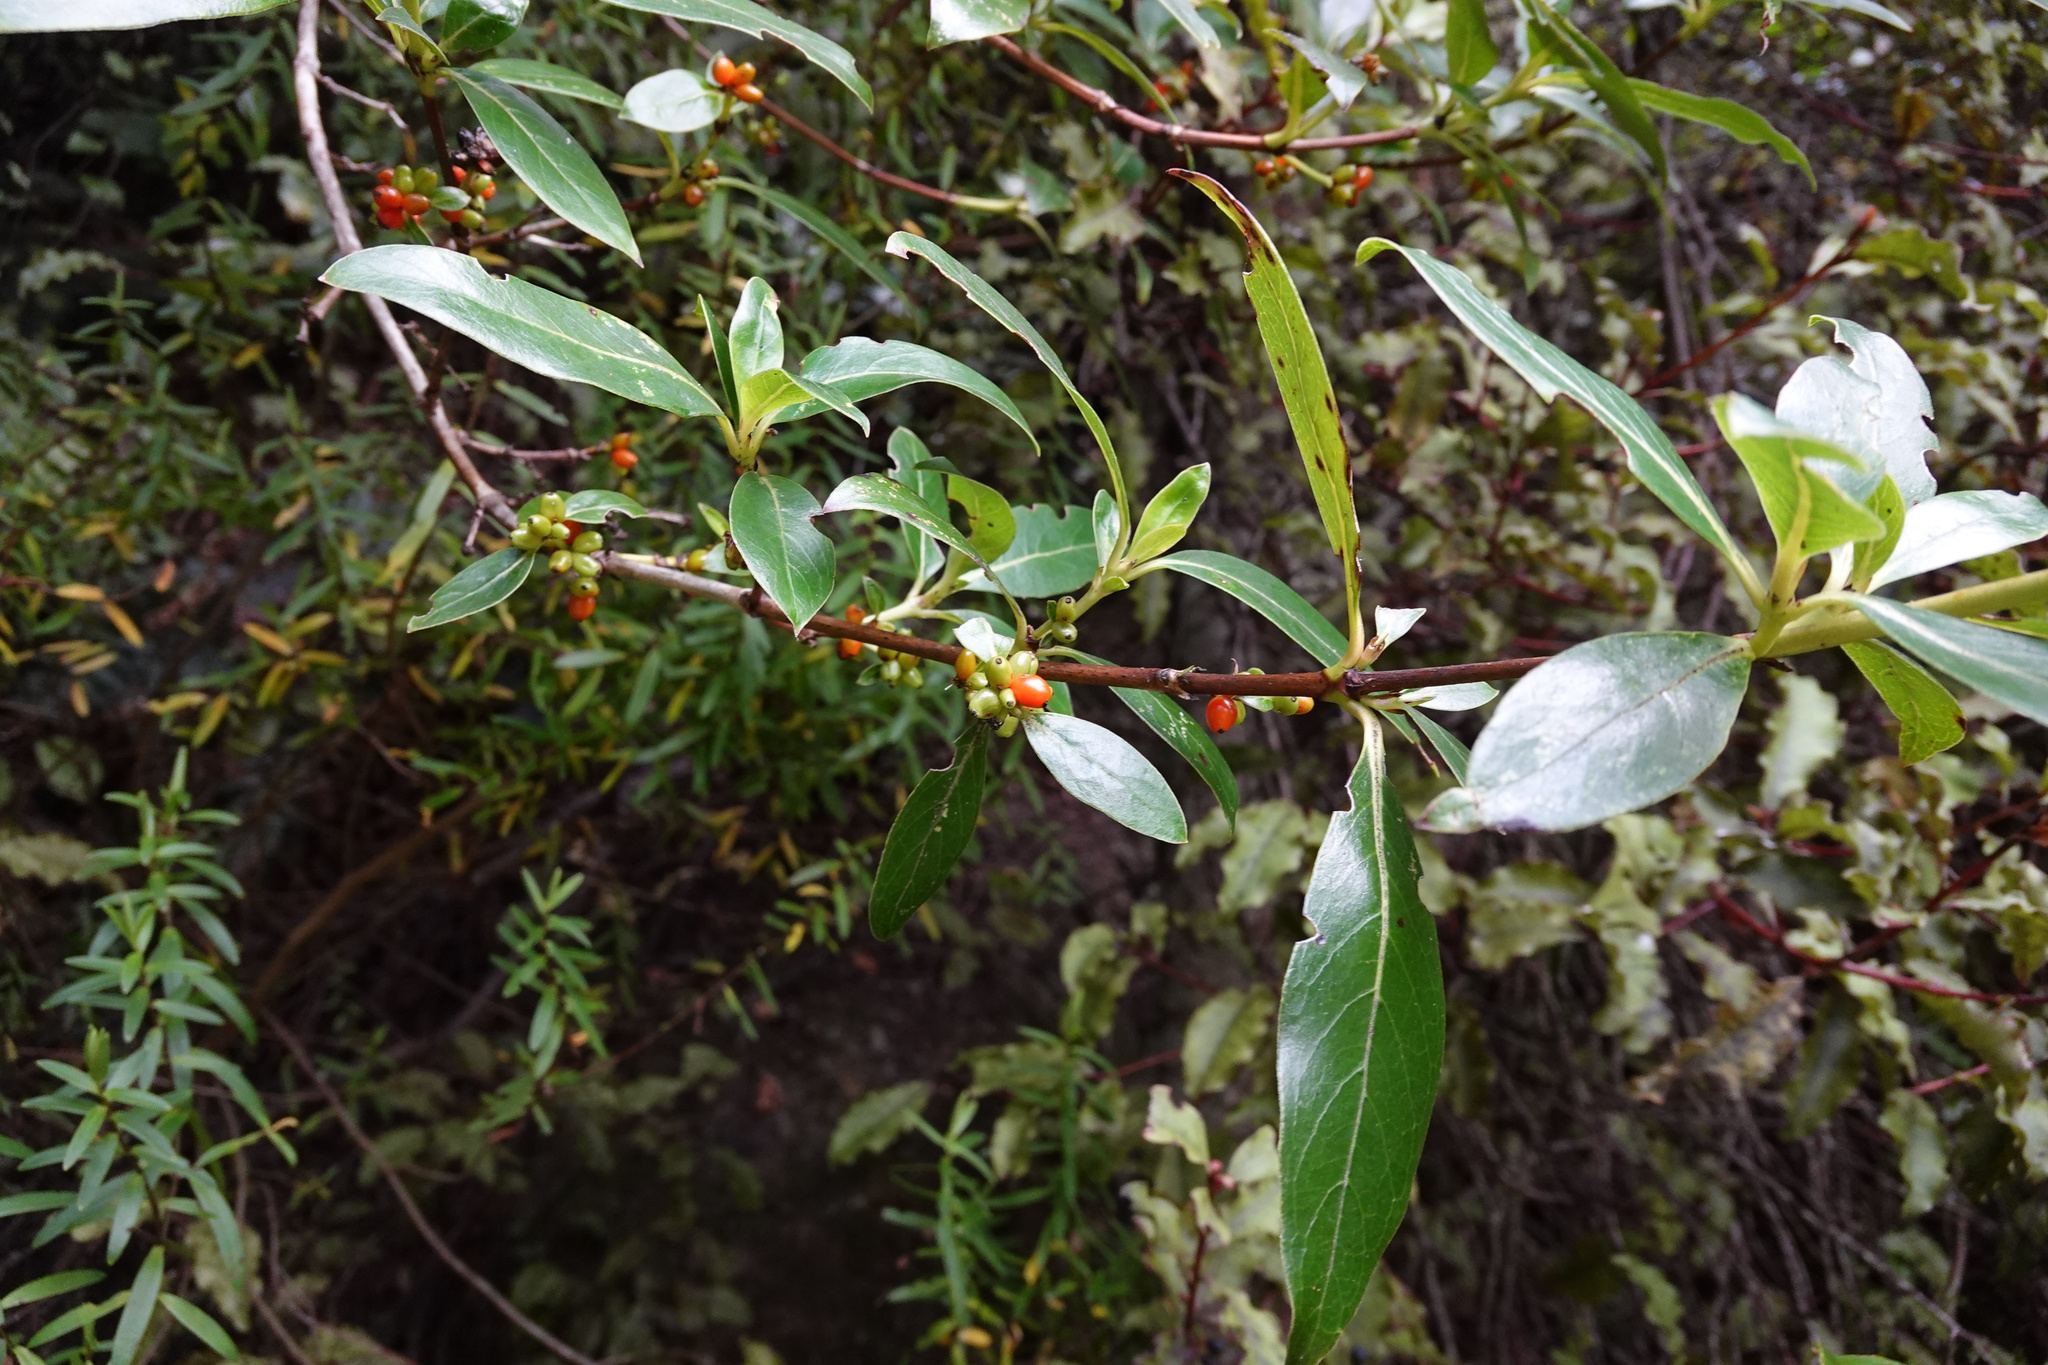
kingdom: Plantae
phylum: Tracheophyta
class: Magnoliopsida
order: Gentianales
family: Rubiaceae
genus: Coprosma
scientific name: Coprosma robusta
